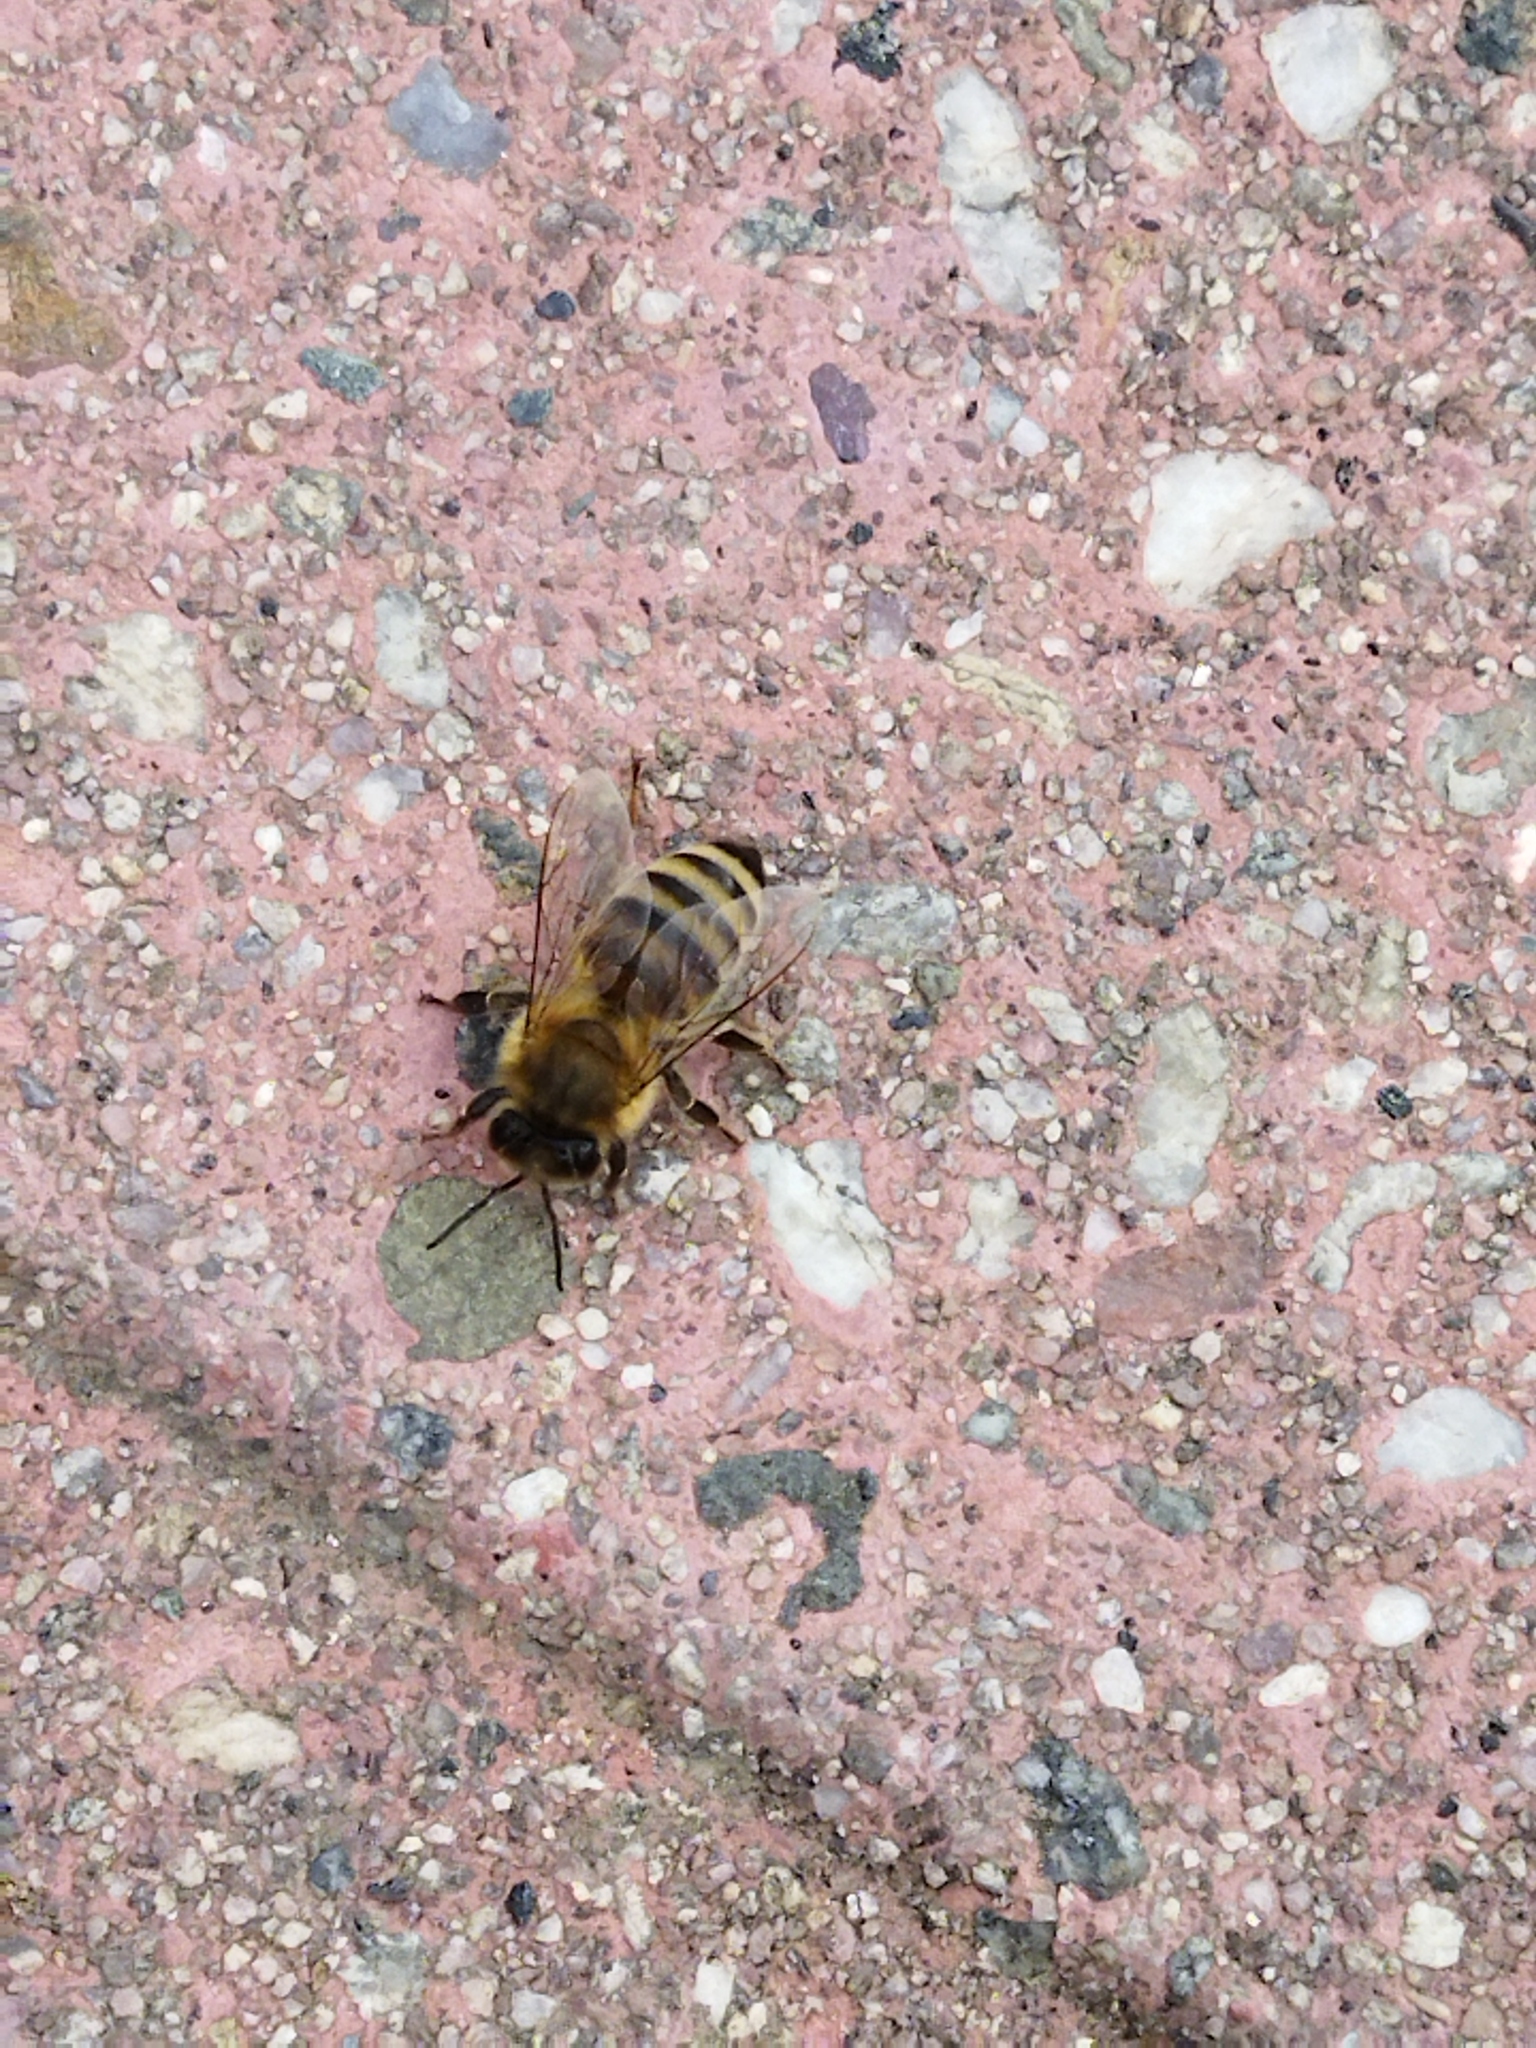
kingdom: Animalia
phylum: Arthropoda
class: Insecta
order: Hymenoptera
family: Apidae
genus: Apis
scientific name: Apis mellifera
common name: Honey bee
